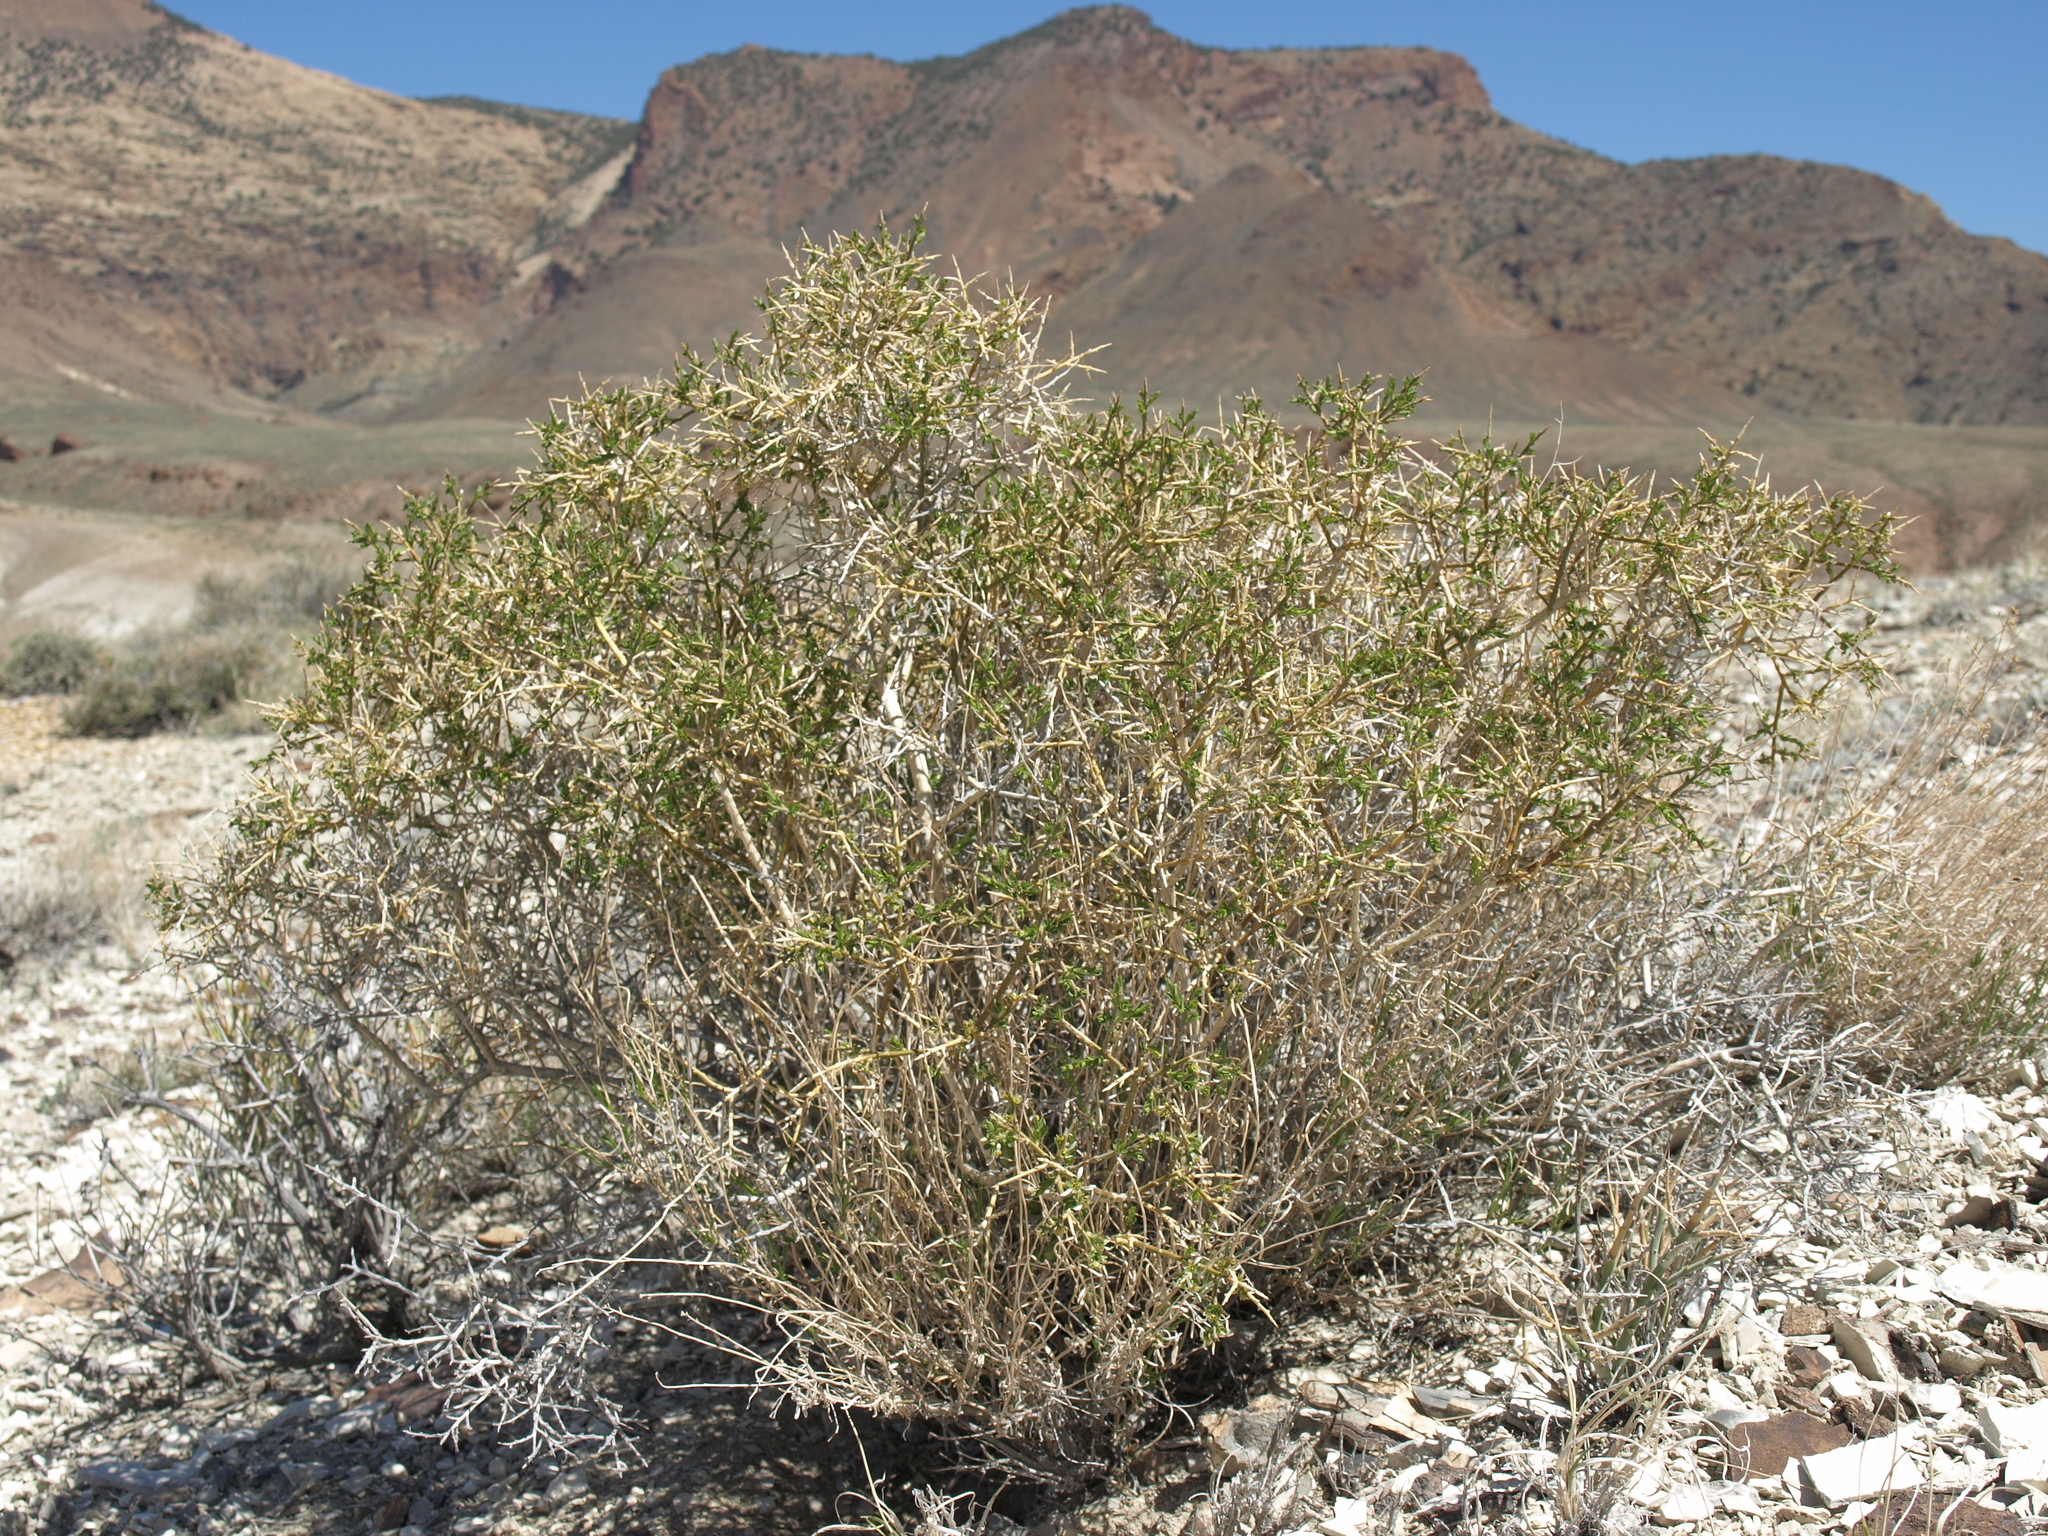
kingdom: Plantae
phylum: Tracheophyta
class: Magnoliopsida
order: Crossosomatales
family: Crossosomataceae
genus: Glossopetalon
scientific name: Glossopetalon spinescens
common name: Spring greasebush
